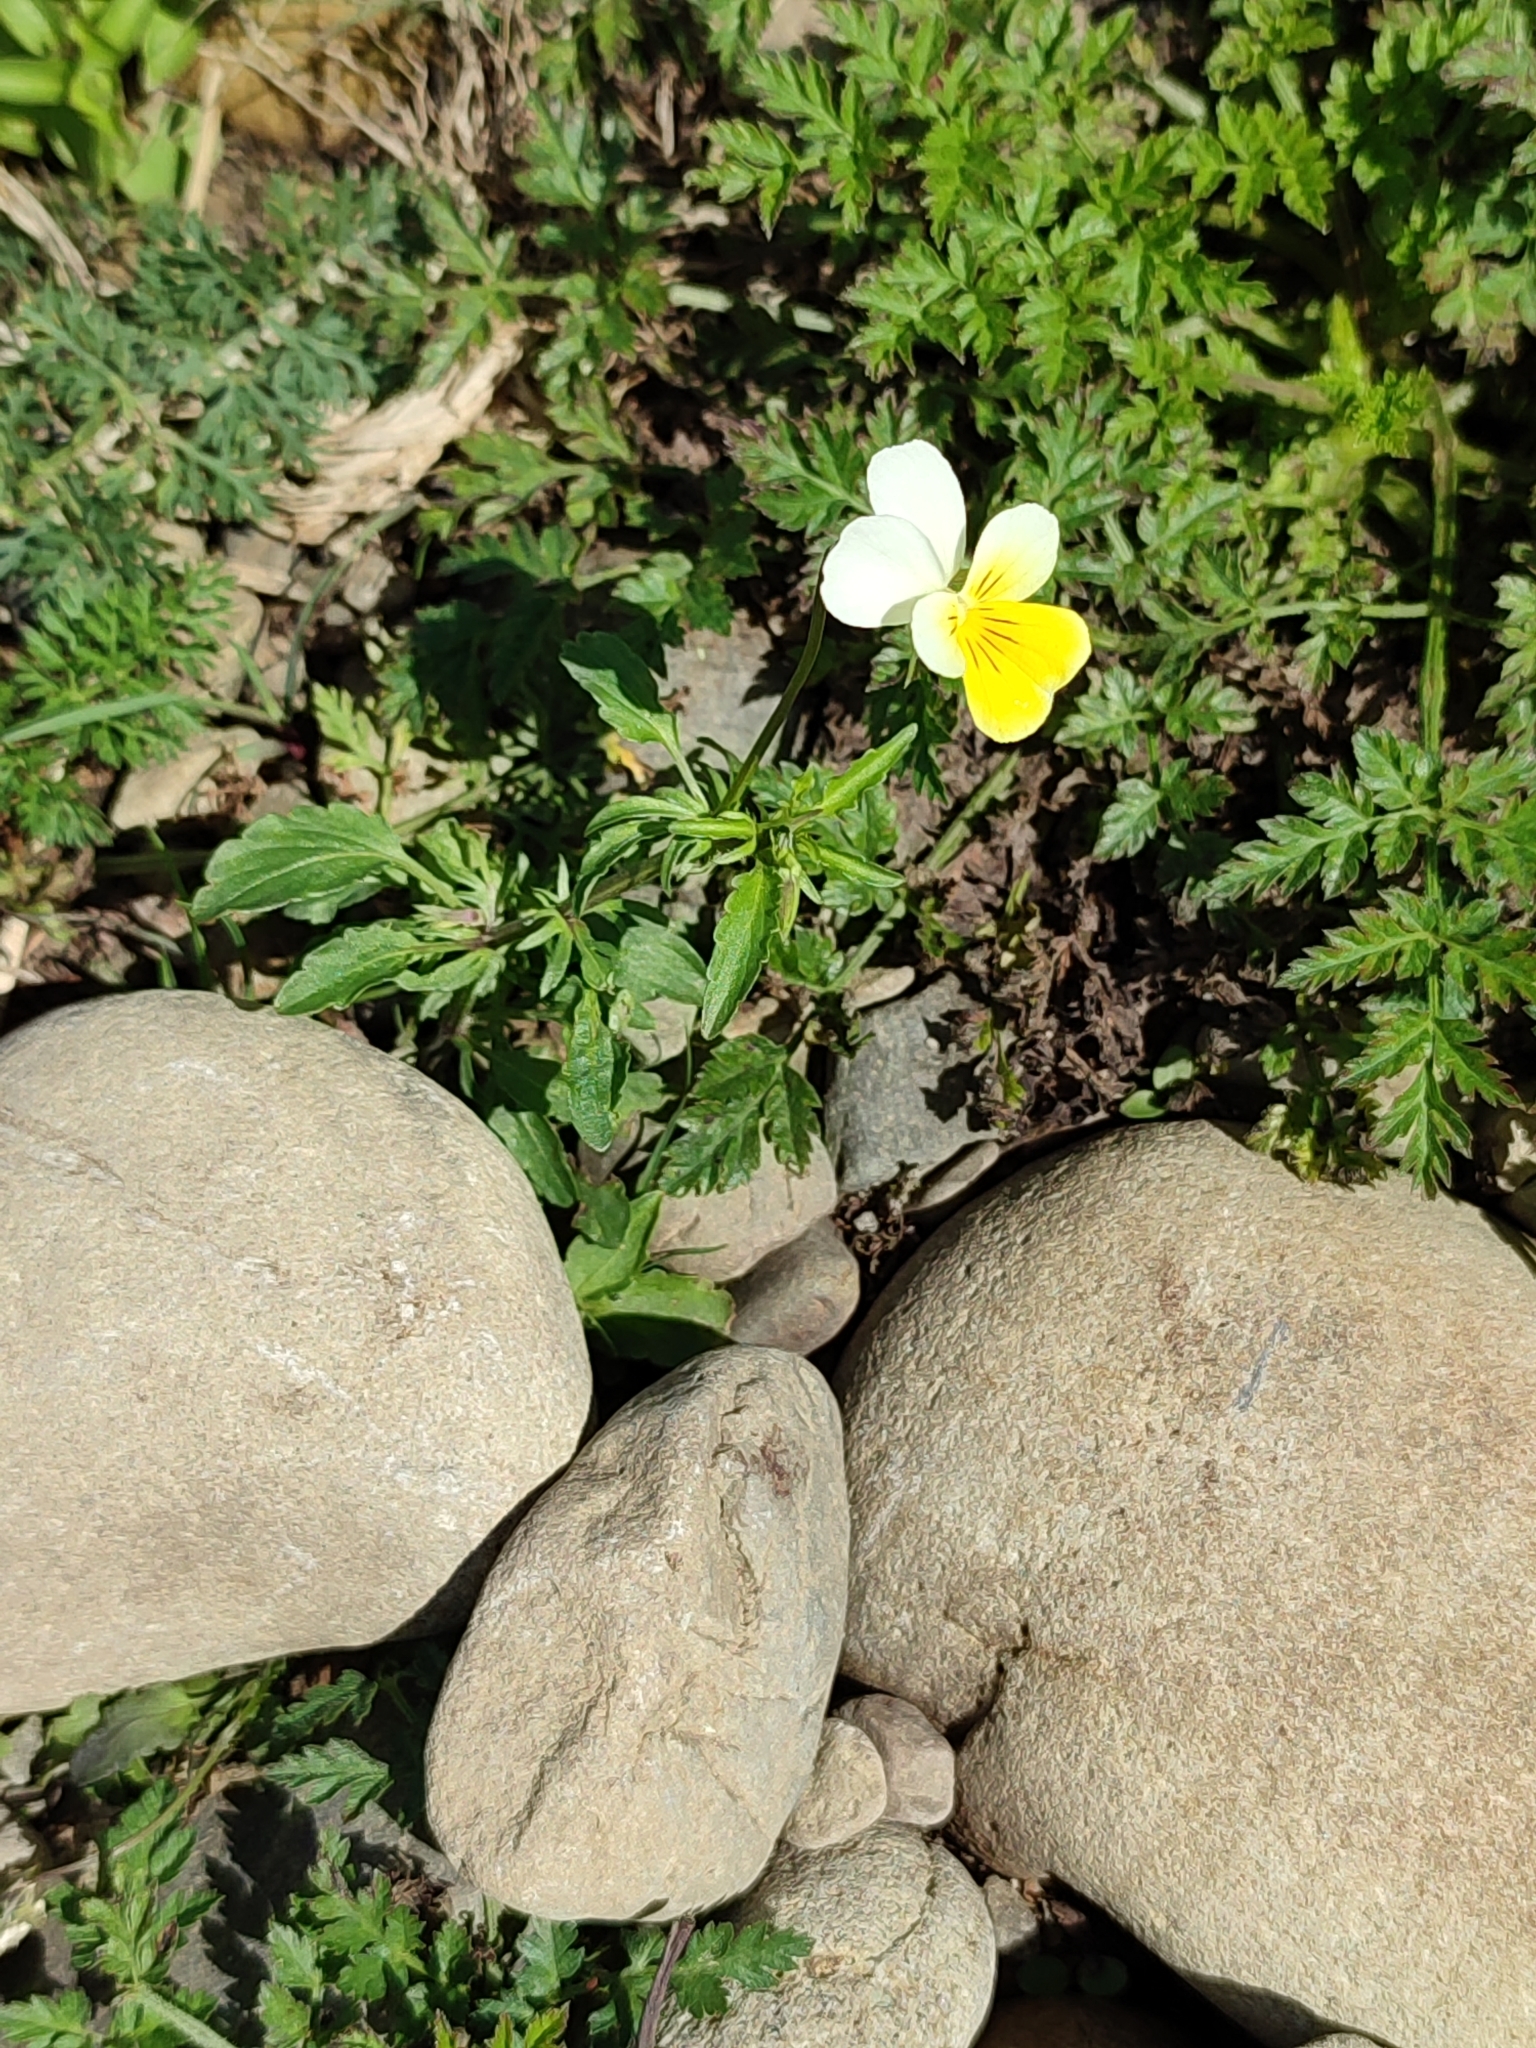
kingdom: Plantae
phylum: Tracheophyta
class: Magnoliopsida
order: Malpighiales
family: Violaceae
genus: Viola
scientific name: Viola tricolor
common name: Pansy
